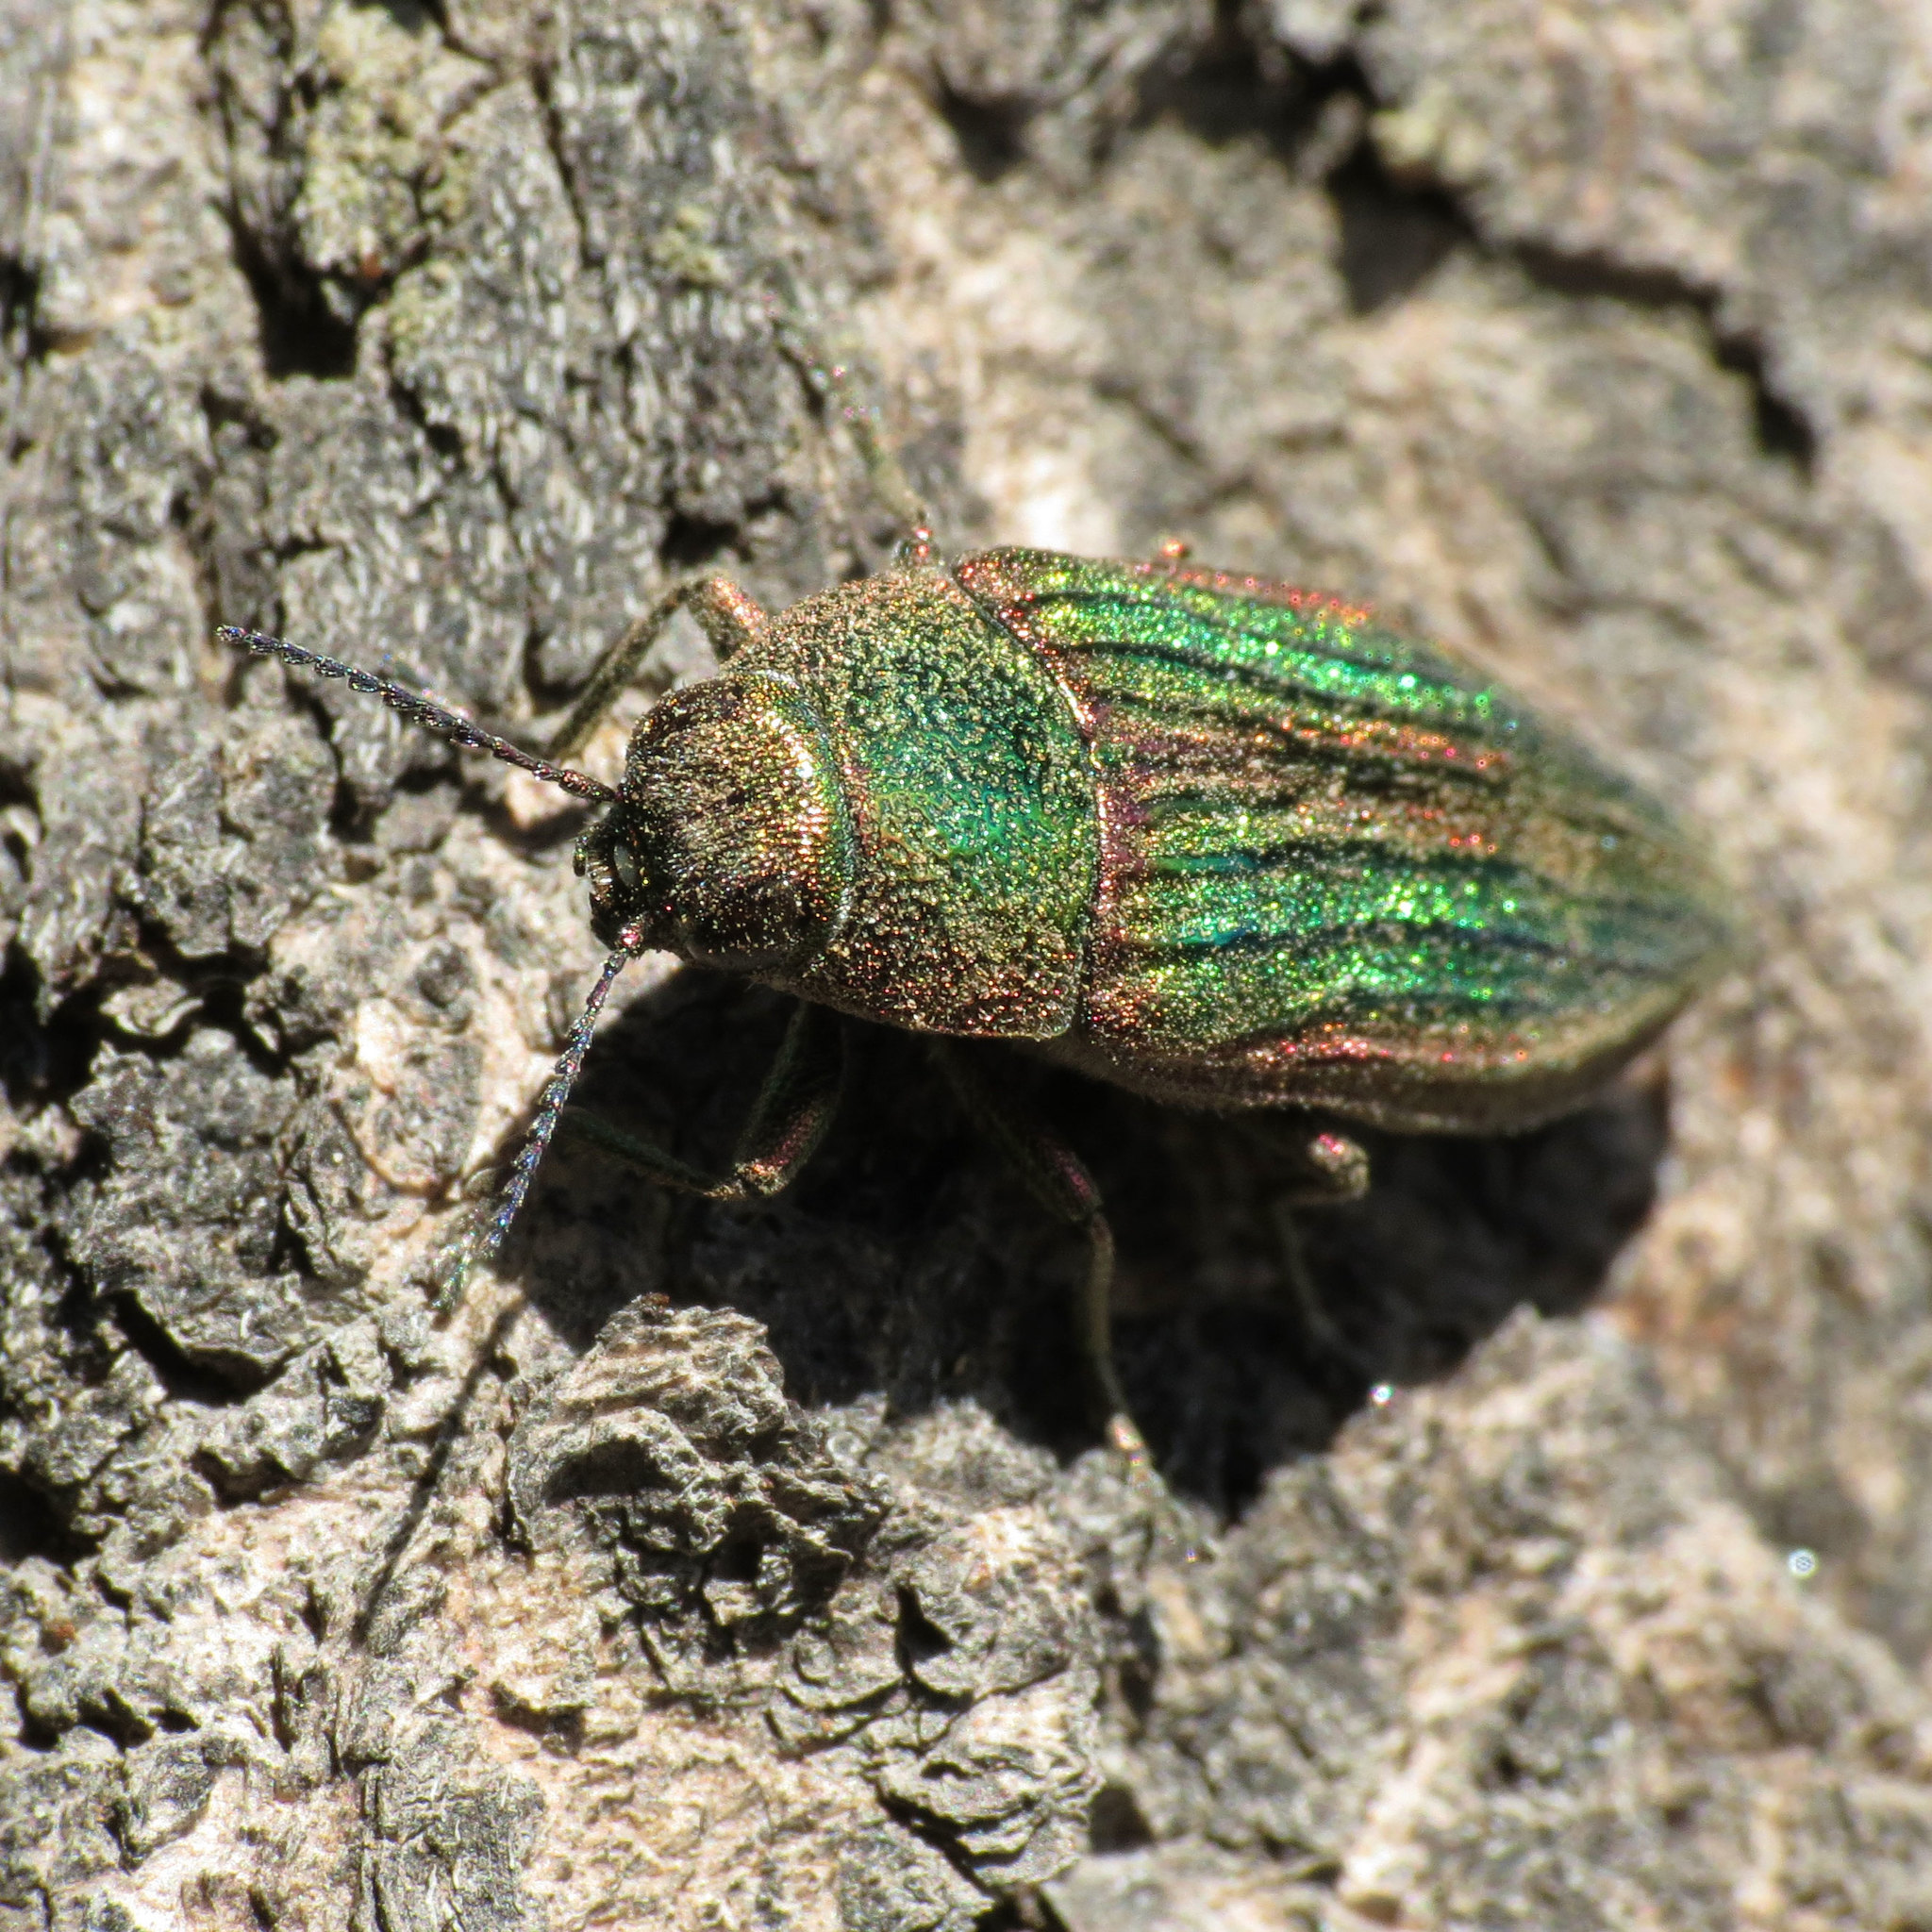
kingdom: Animalia
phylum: Arthropoda
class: Insecta
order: Coleoptera
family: Buprestidae
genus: Buprestis
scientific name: Buprestis aurulenta
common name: Golden buprestid
